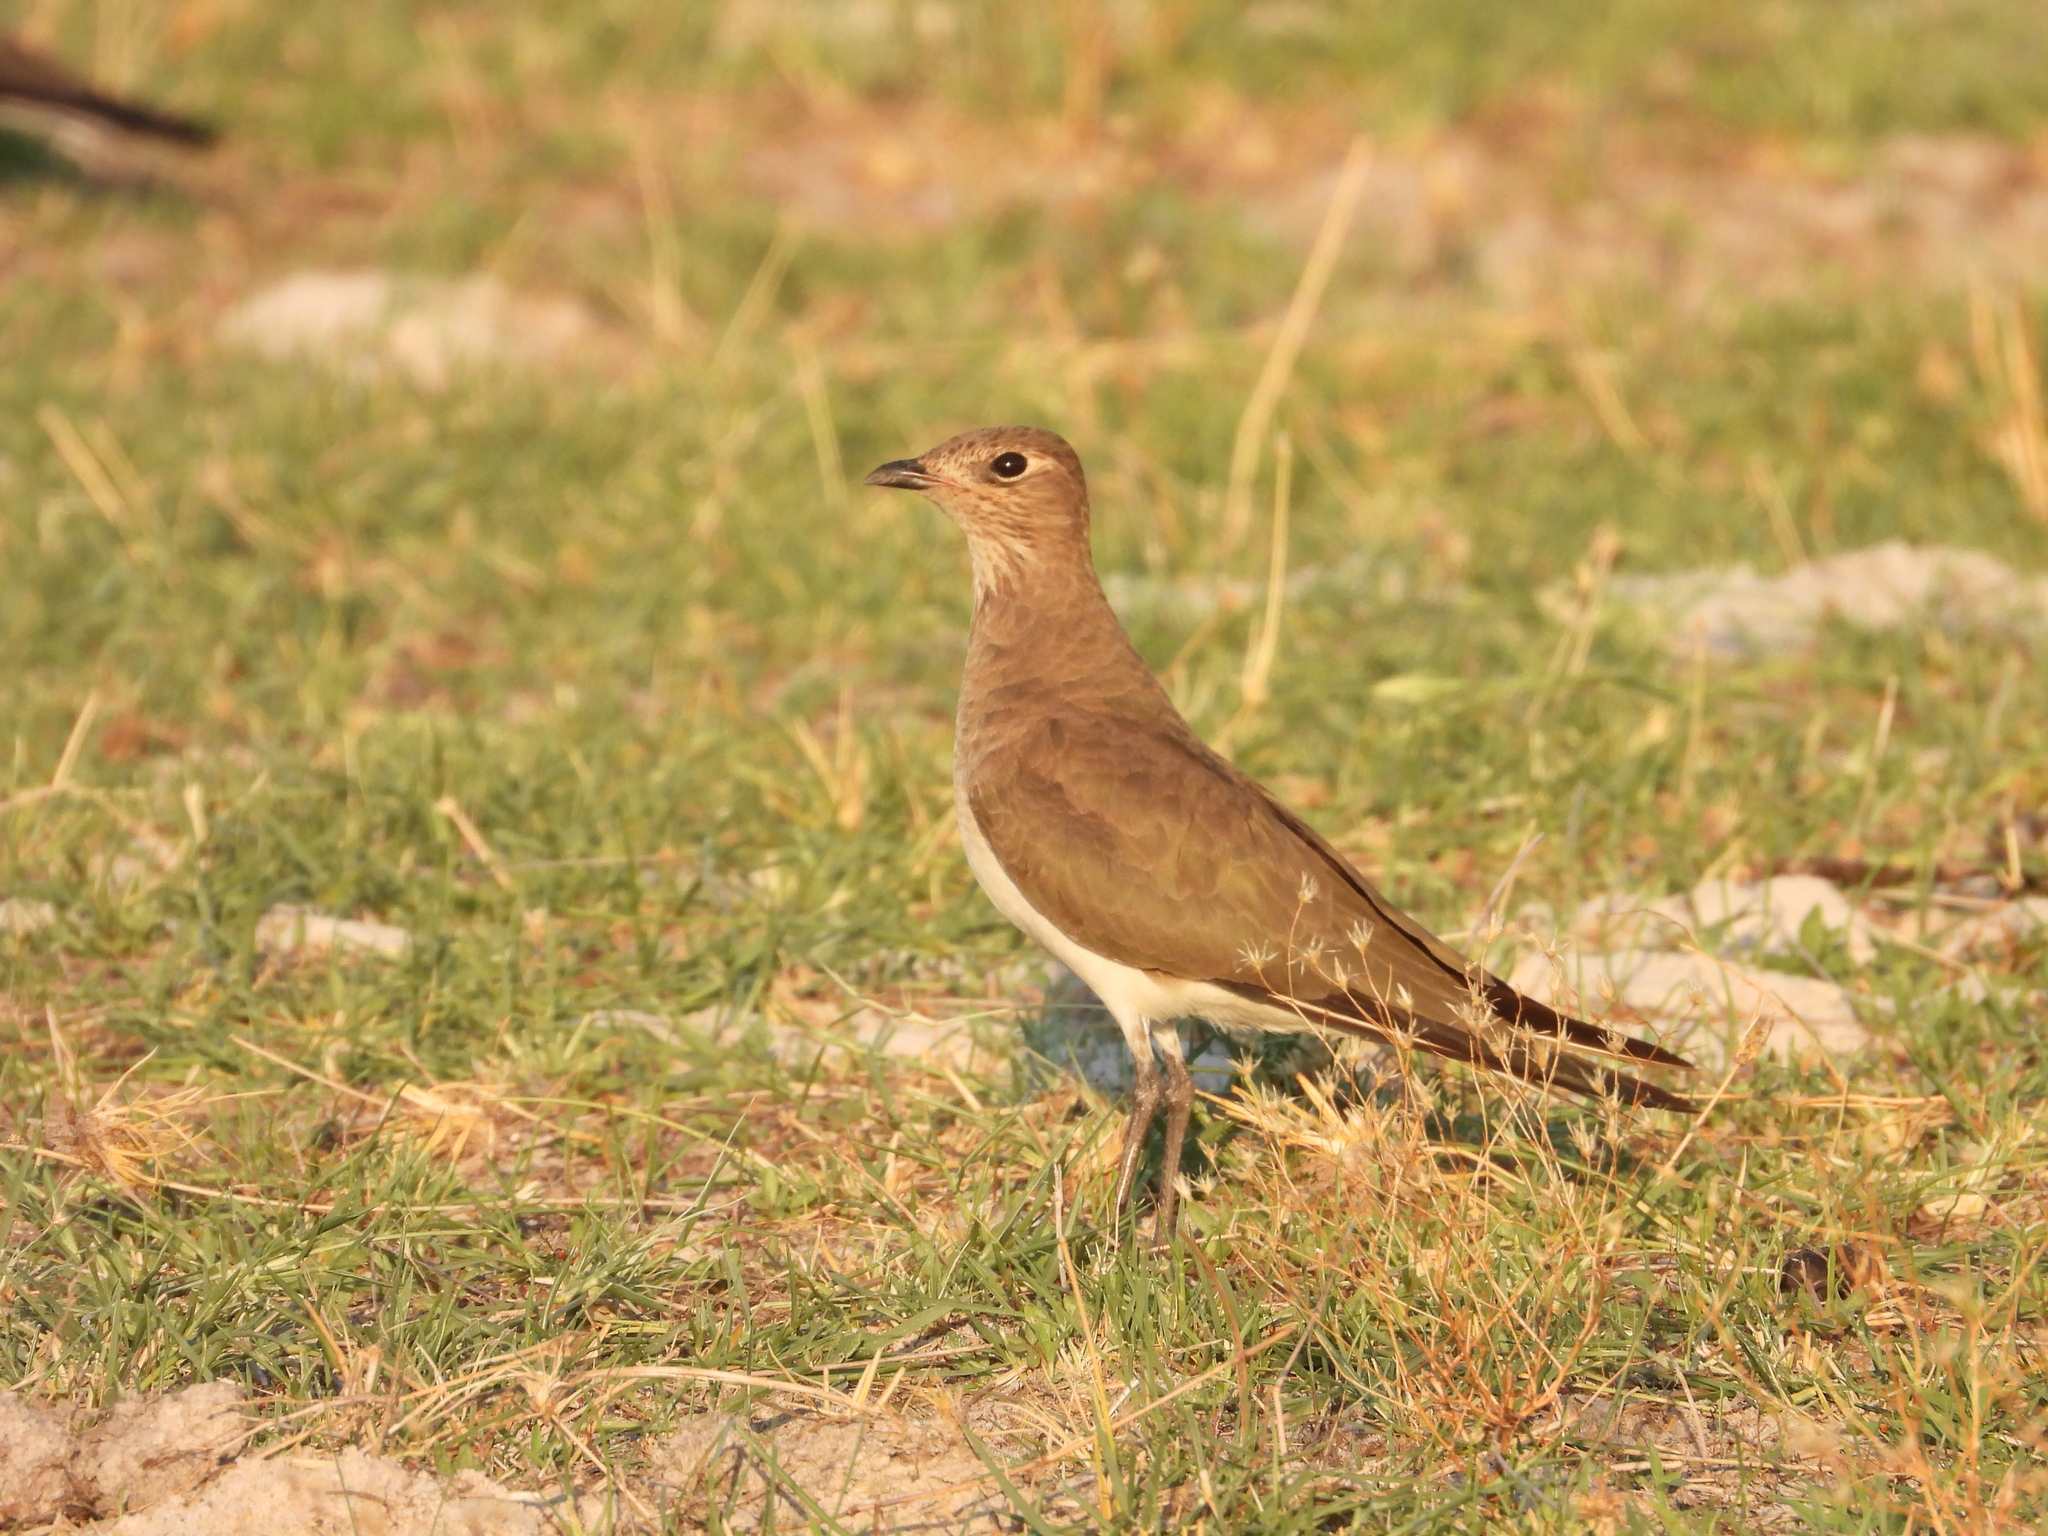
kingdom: Animalia
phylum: Chordata
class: Aves
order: Charadriiformes
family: Glareolidae
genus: Glareola
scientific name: Glareola pratincola
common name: Collared pratincole
